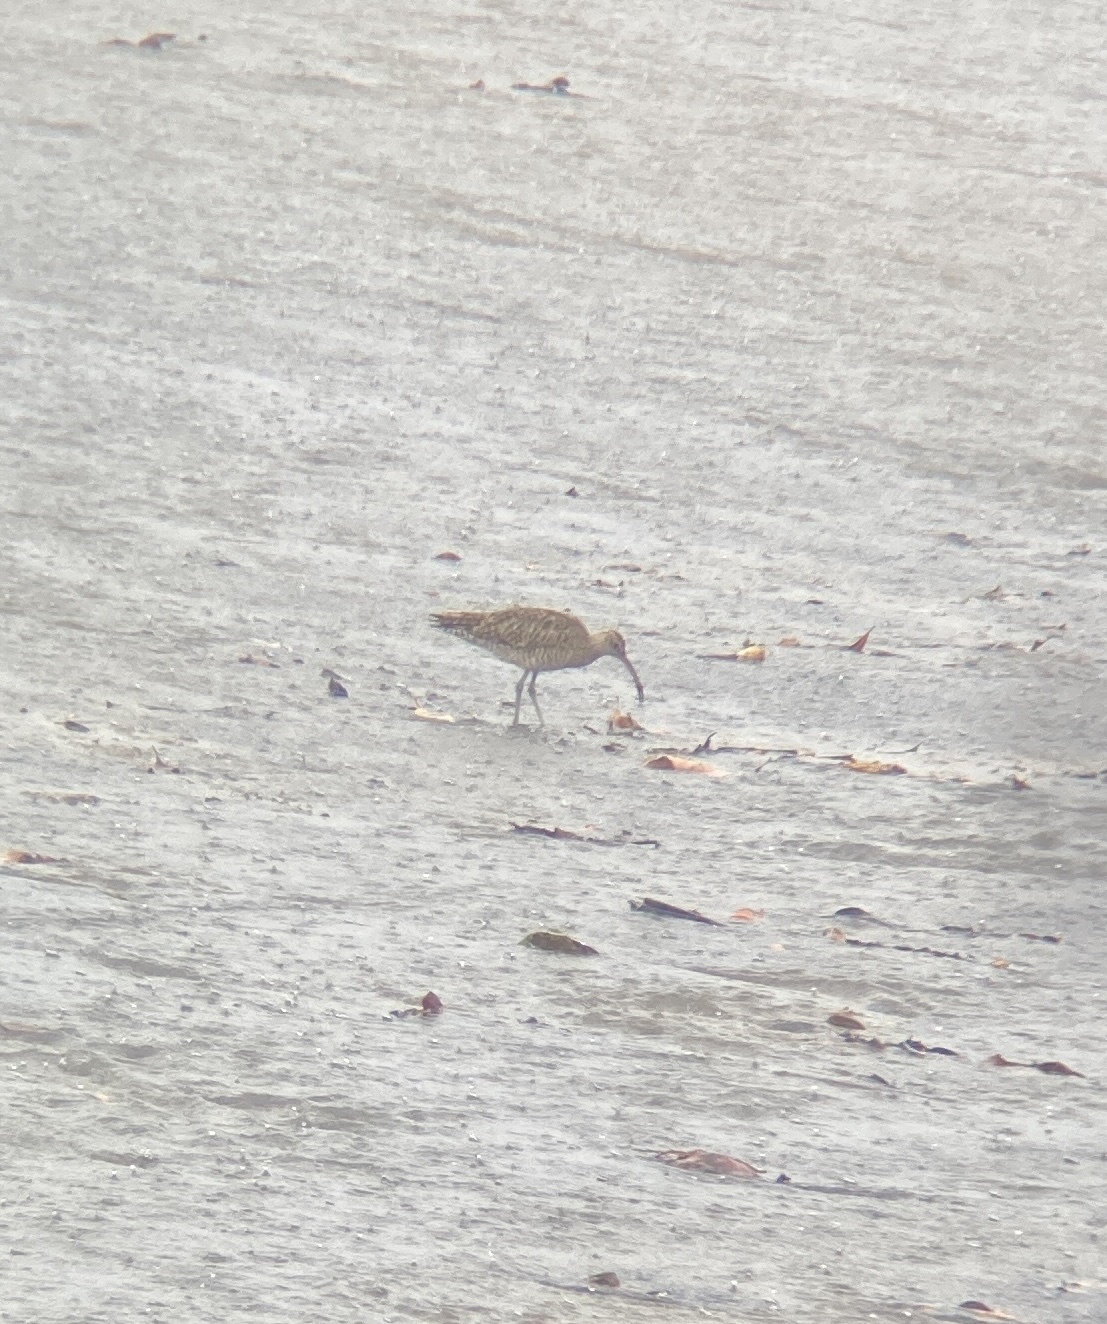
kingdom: Animalia
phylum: Chordata
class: Aves
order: Charadriiformes
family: Scolopacidae
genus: Numenius
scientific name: Numenius phaeopus
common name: Whimbrel
